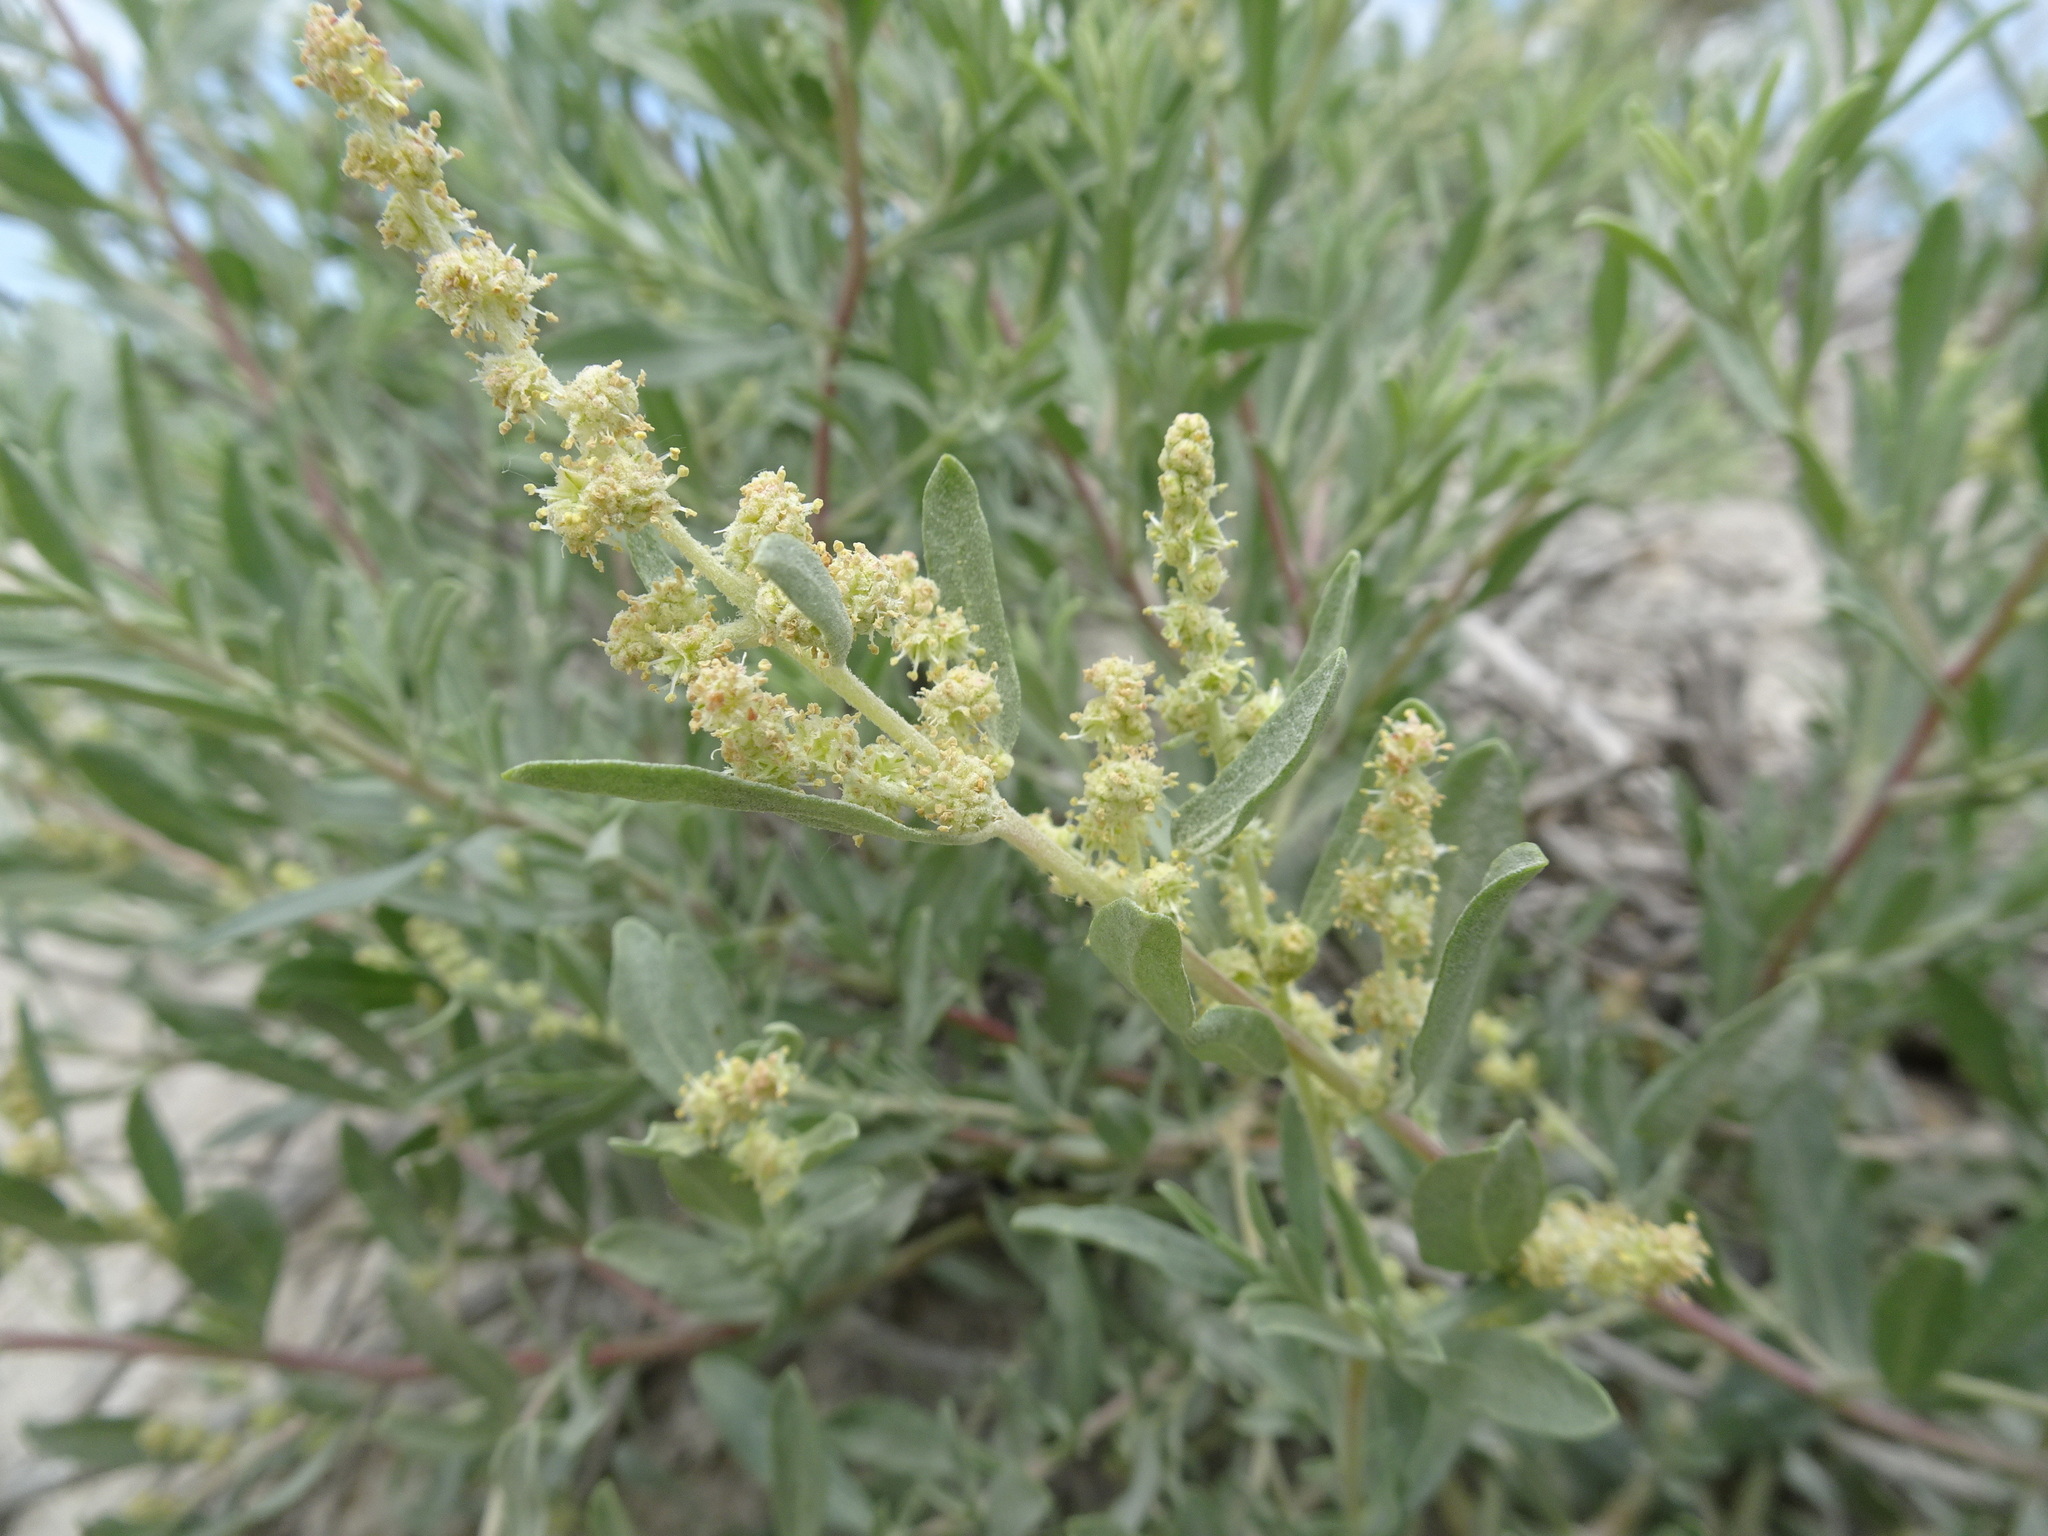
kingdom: Plantae
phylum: Tracheophyta
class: Magnoliopsida
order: Caryophyllales
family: Amaranthaceae
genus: Atriplex
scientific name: Atriplex canescens
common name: Four-wing saltbush
